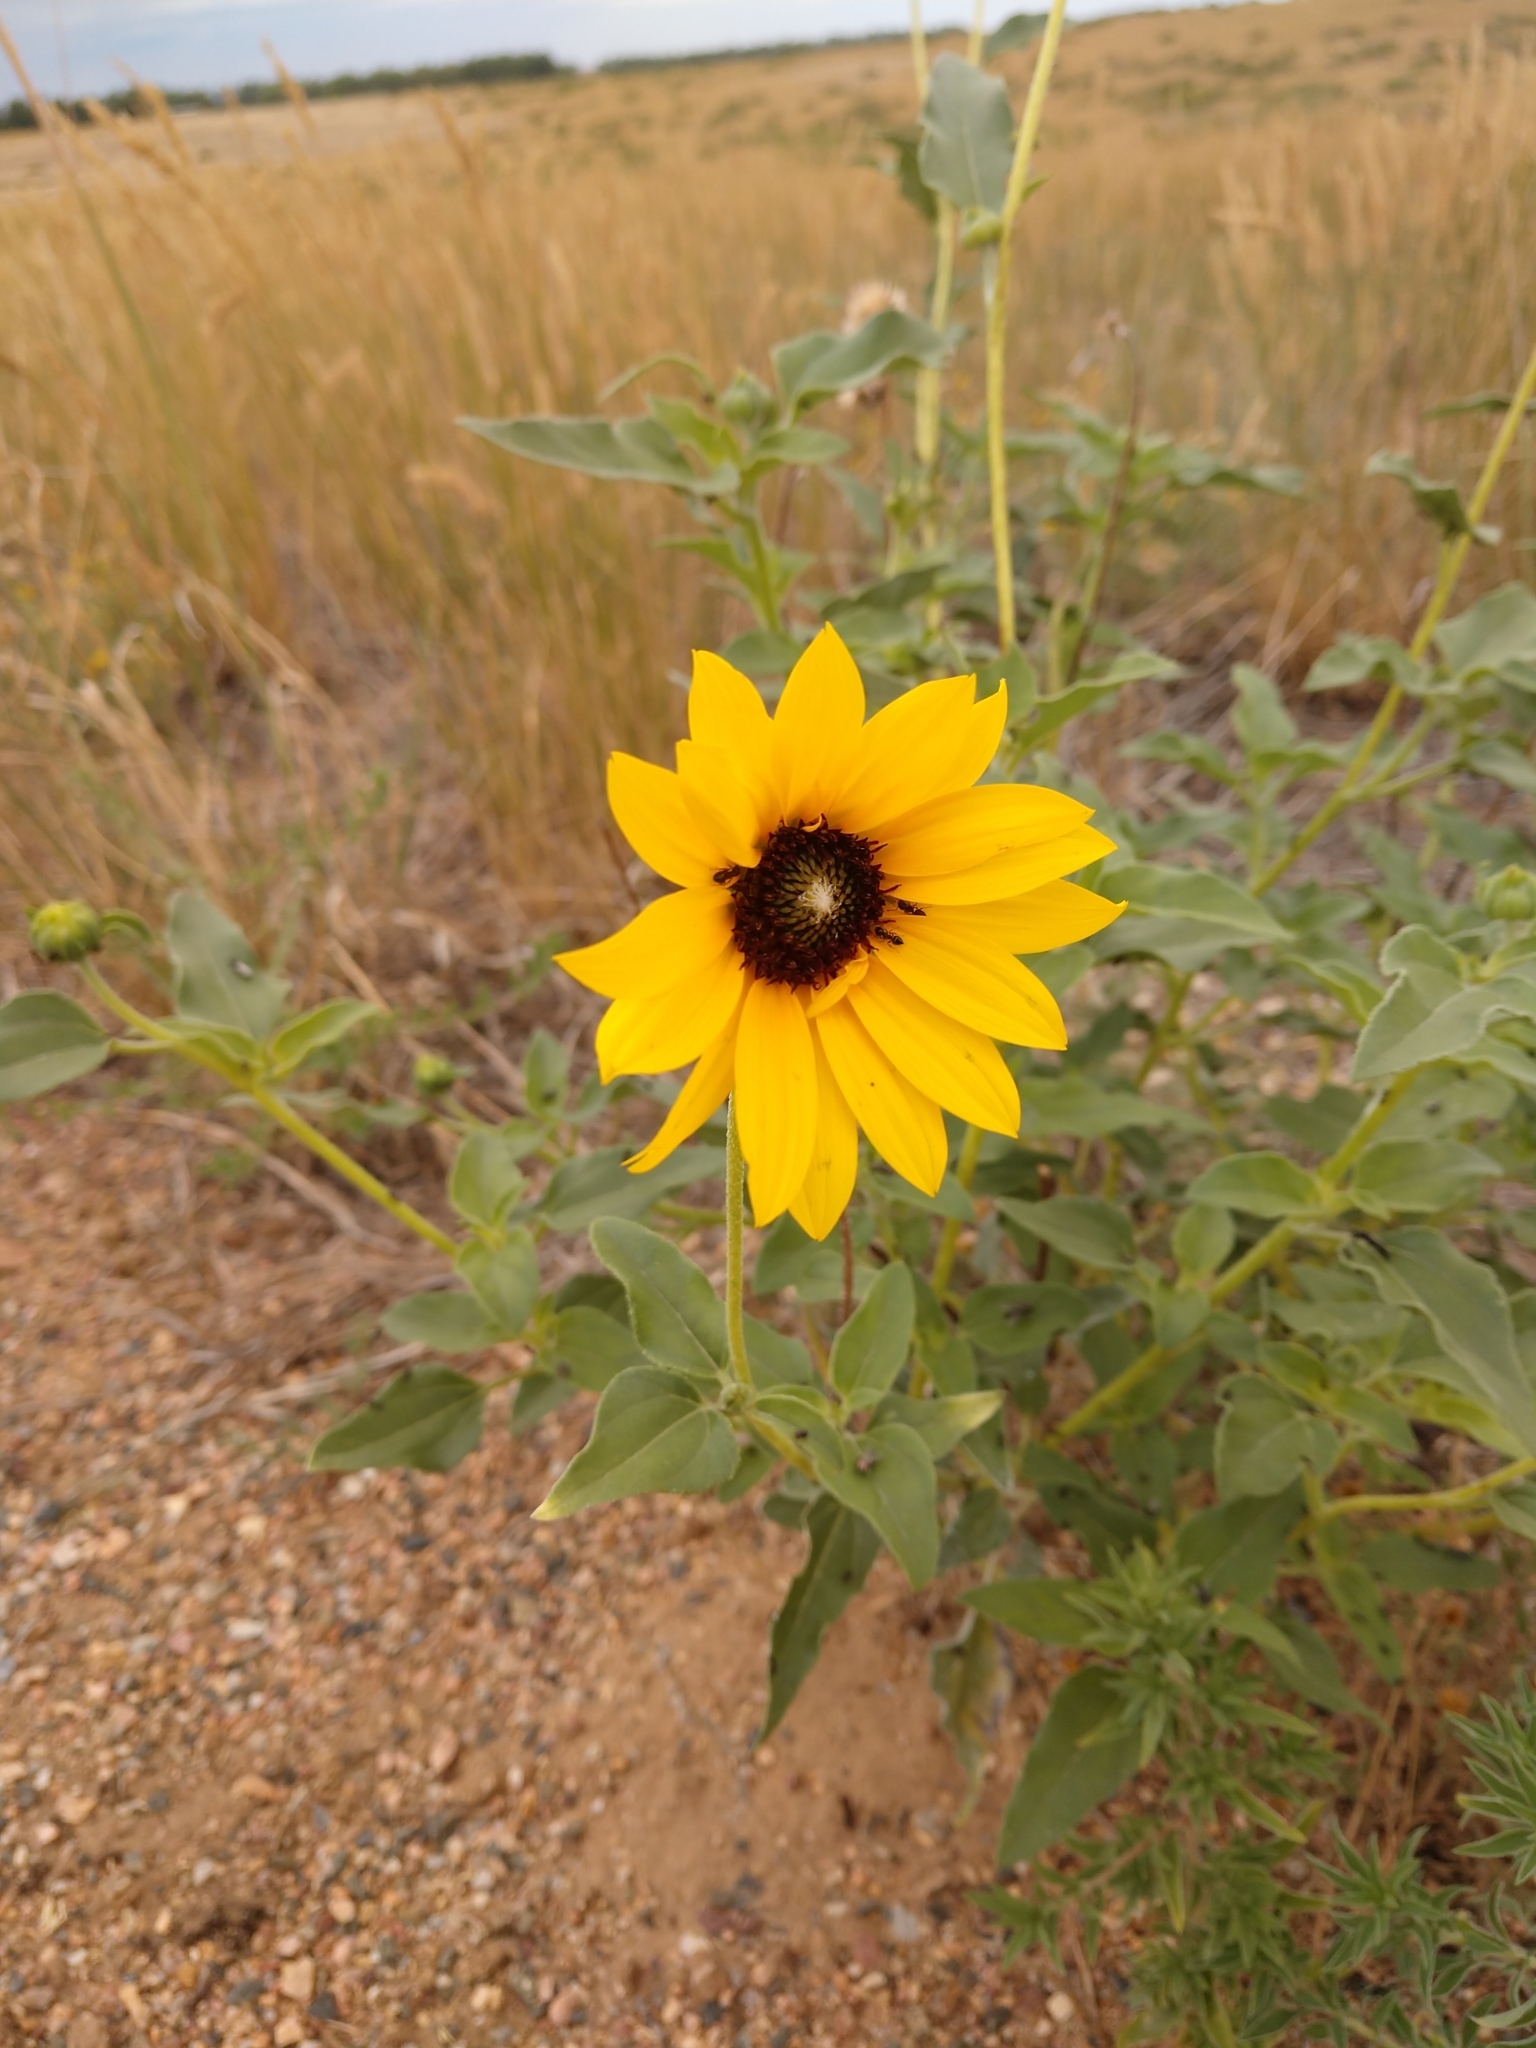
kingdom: Plantae
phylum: Tracheophyta
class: Magnoliopsida
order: Asterales
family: Asteraceae
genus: Helianthus
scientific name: Helianthus petiolaris
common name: Lesser sunflower
